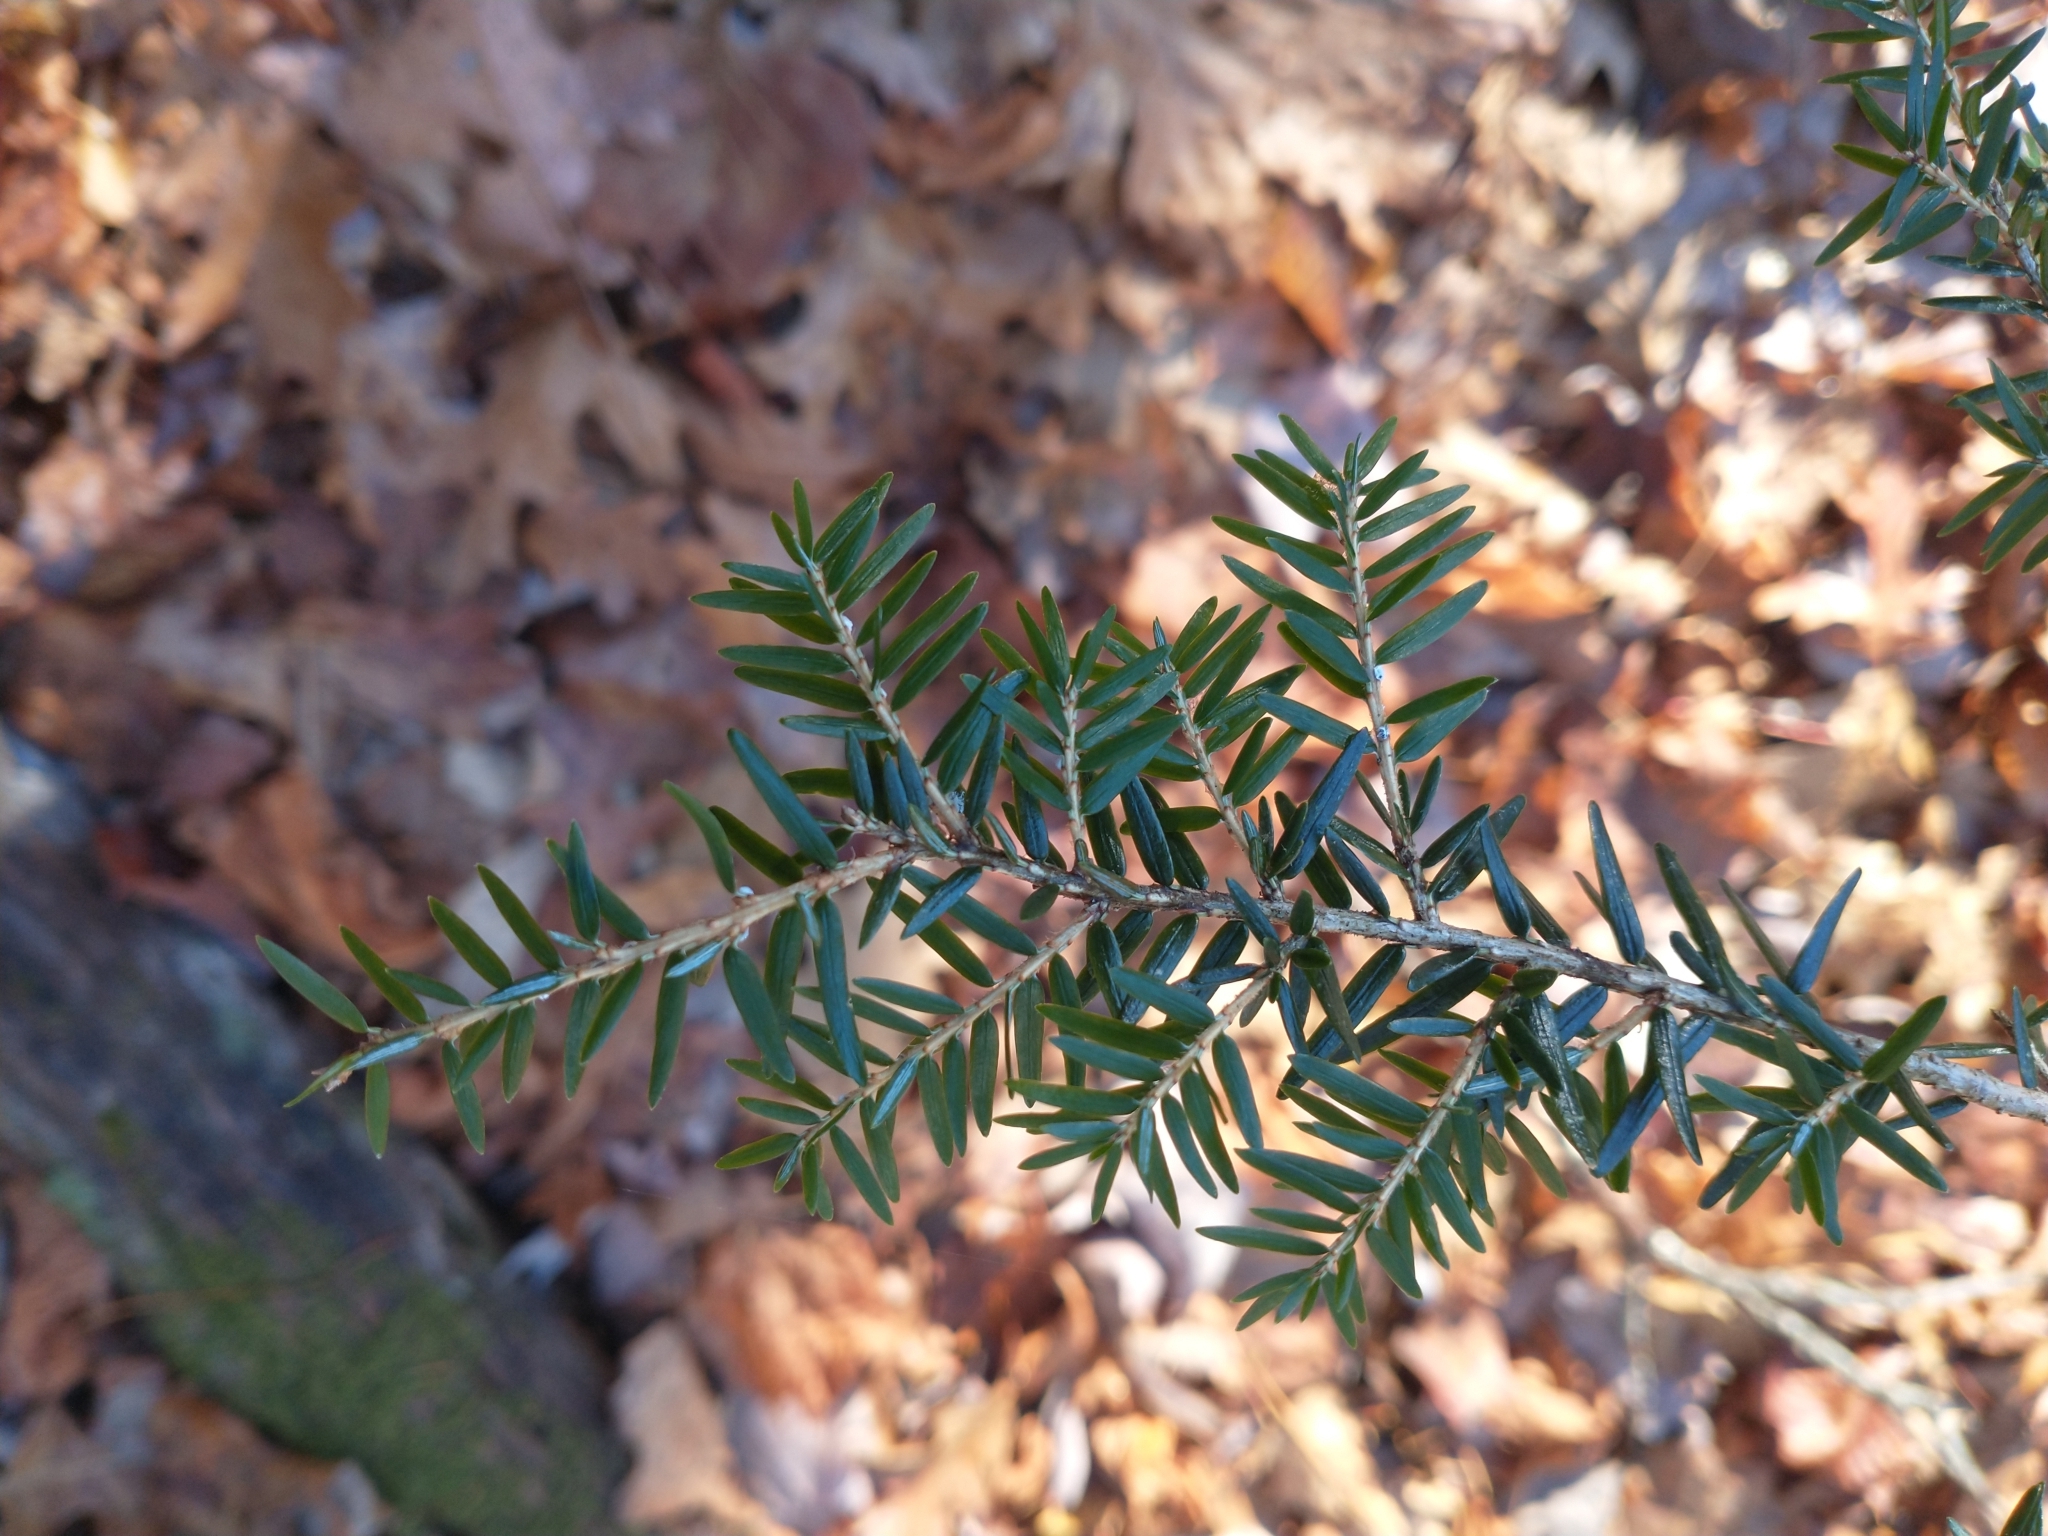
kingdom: Plantae
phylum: Tracheophyta
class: Pinopsida
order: Pinales
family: Pinaceae
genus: Tsuga
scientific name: Tsuga canadensis
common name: Eastern hemlock
